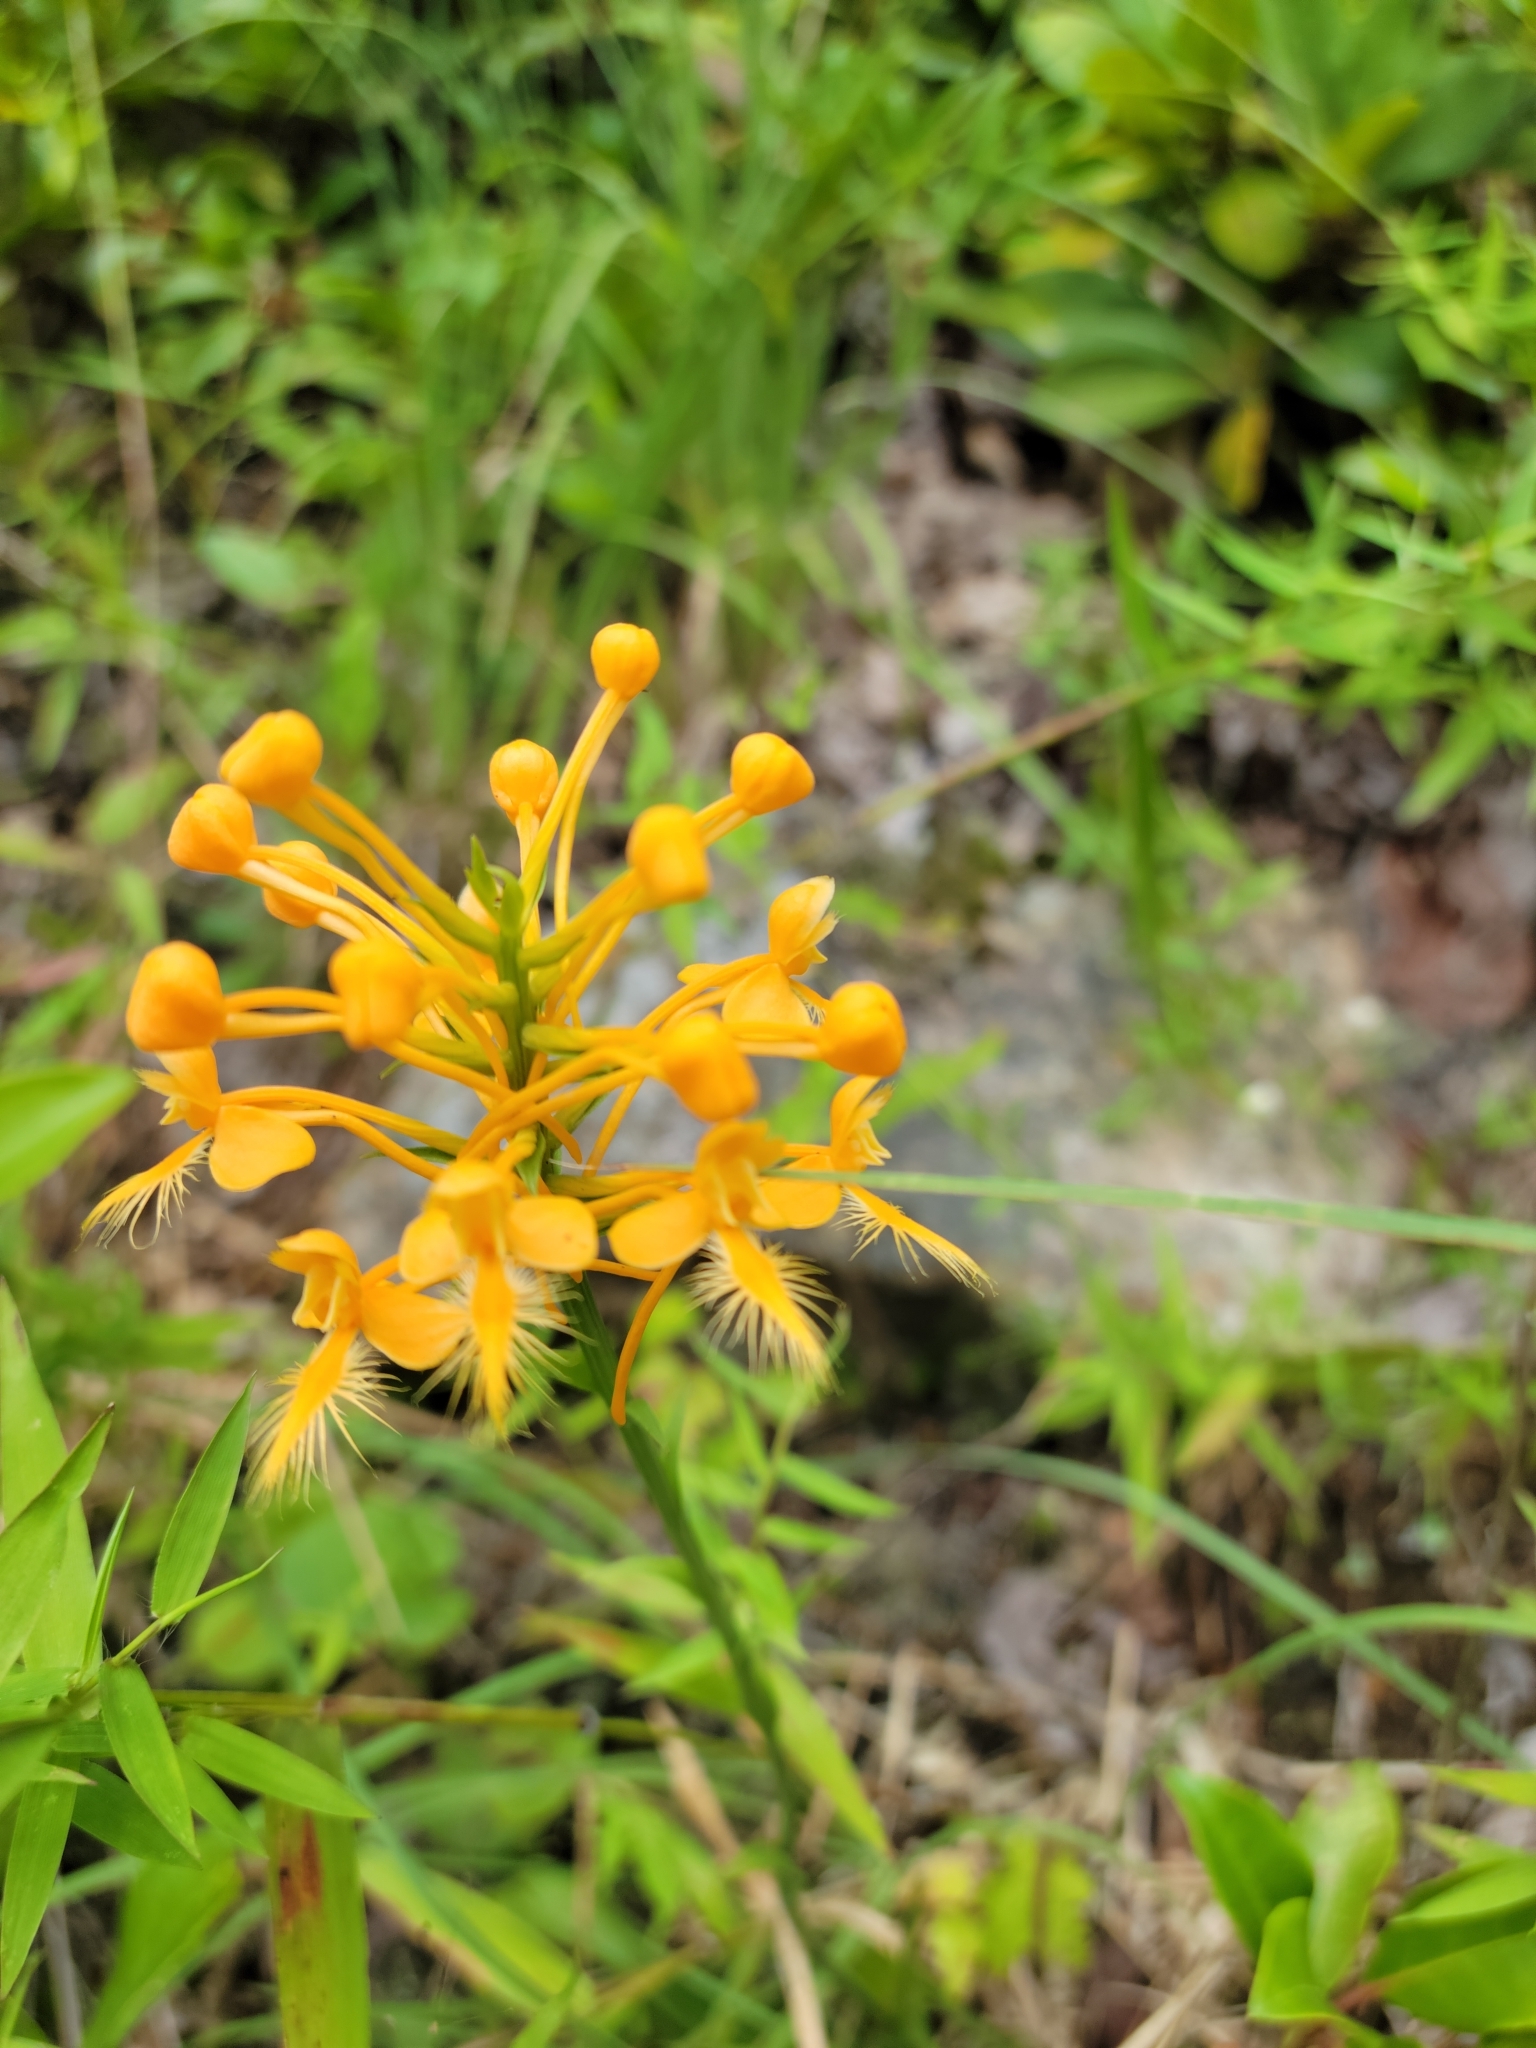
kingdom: Plantae
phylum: Tracheophyta
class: Liliopsida
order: Asparagales
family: Orchidaceae
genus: Platanthera
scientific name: Platanthera ciliaris
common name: Yellow fringed orchid
